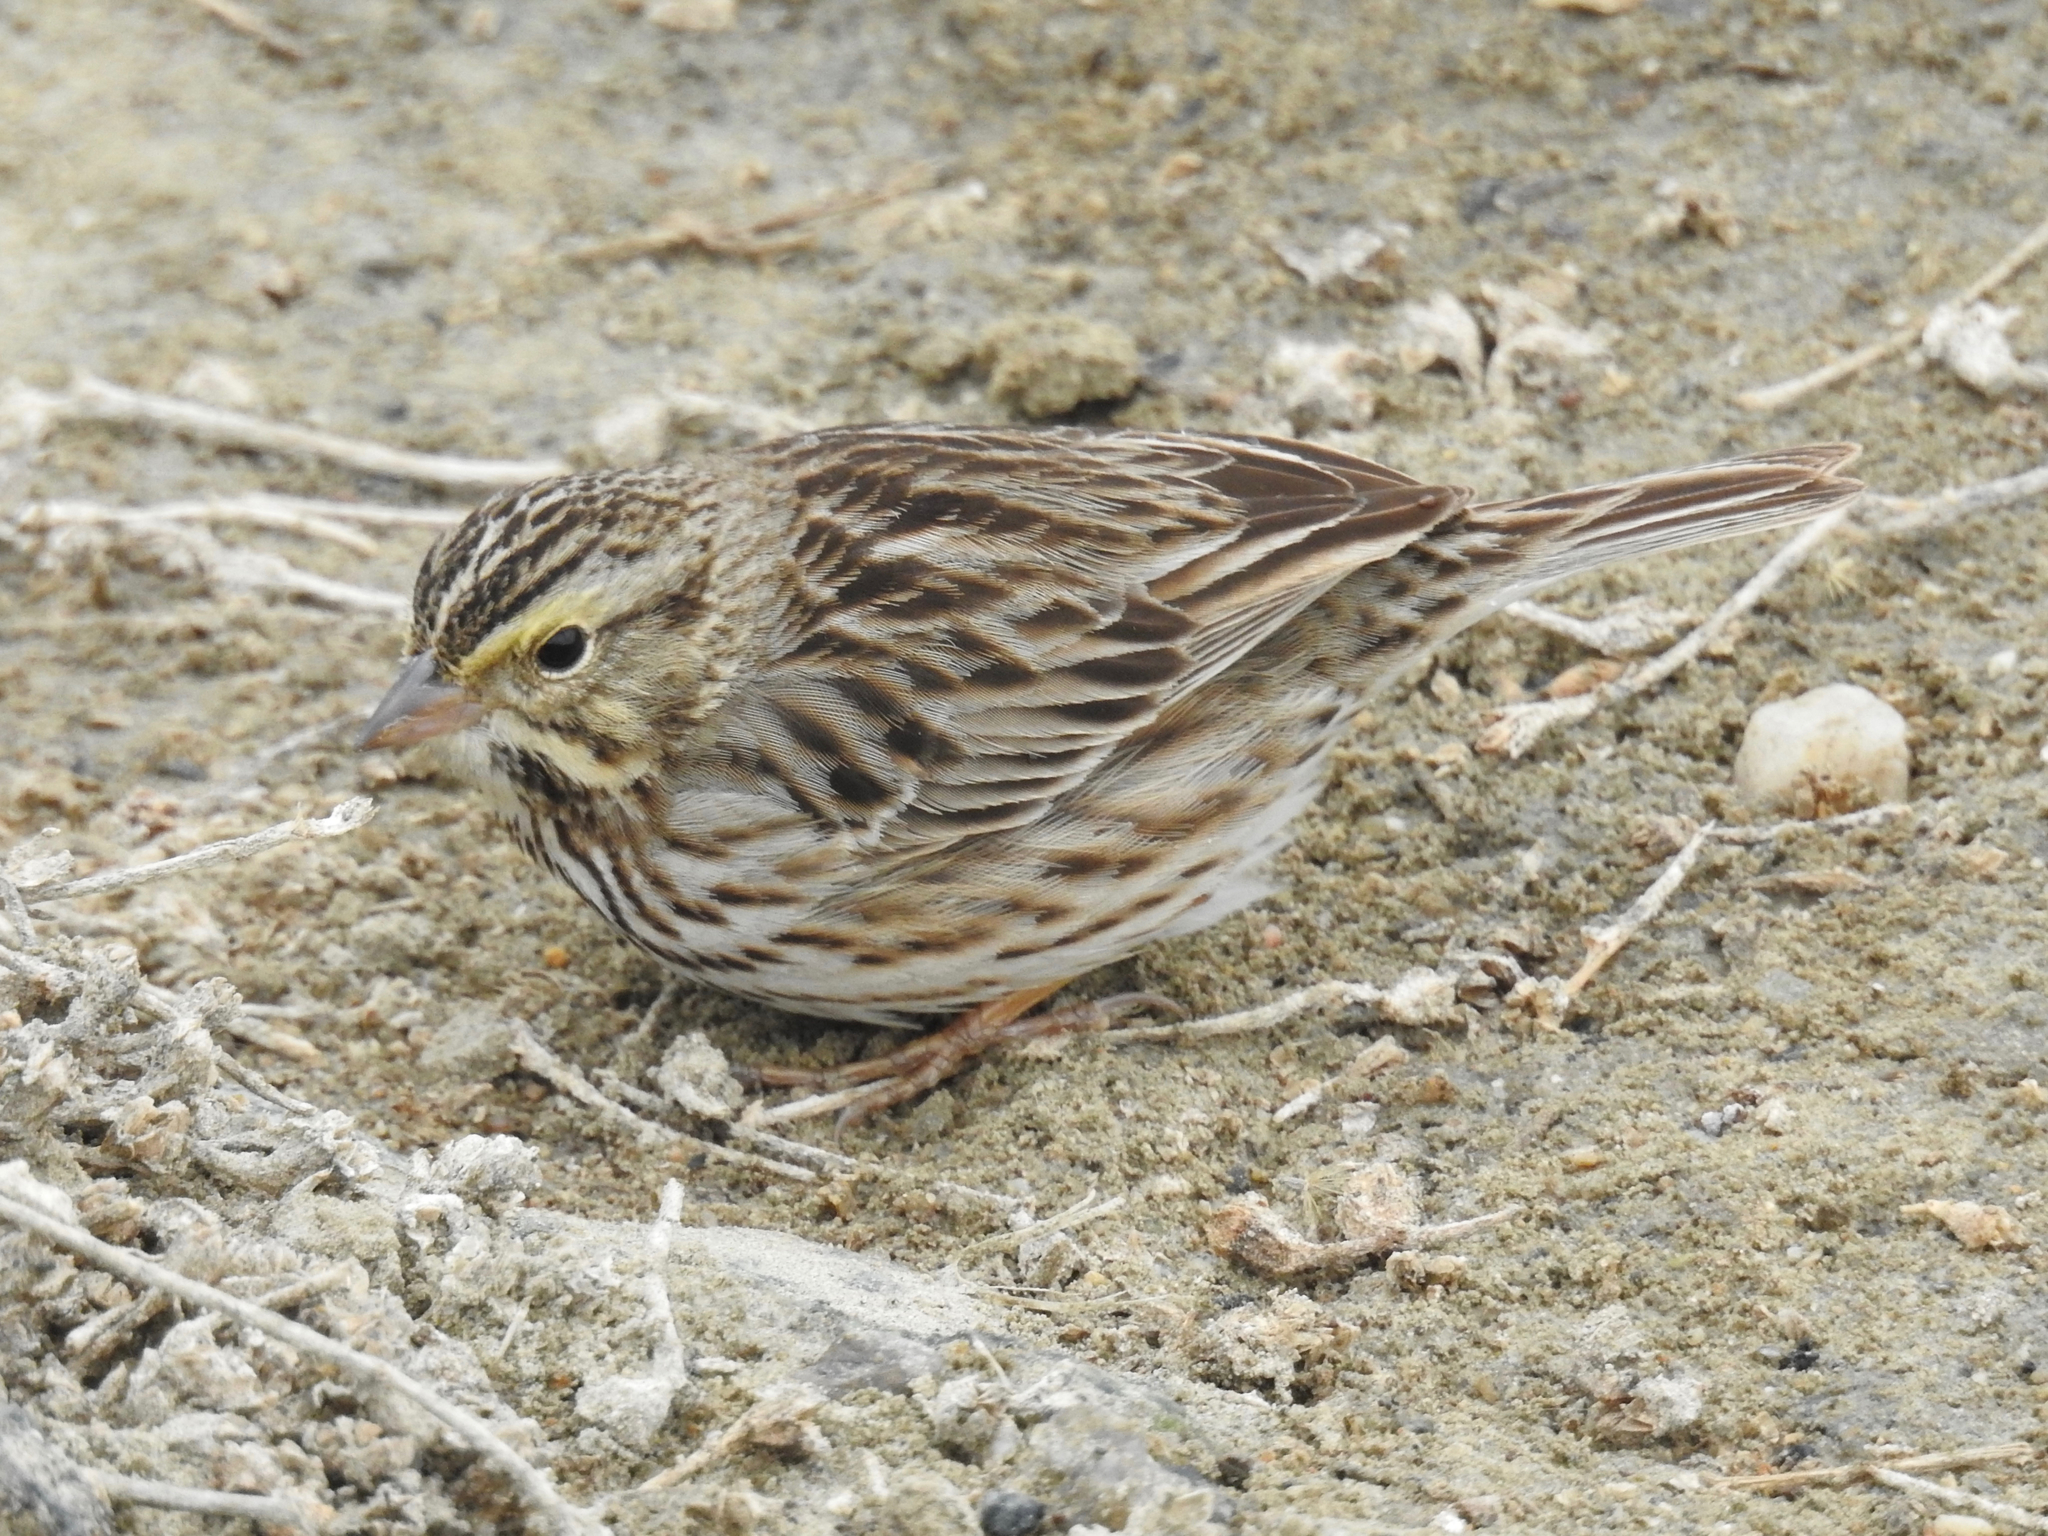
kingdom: Animalia
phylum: Chordata
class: Aves
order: Passeriformes
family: Passerellidae
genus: Passerculus
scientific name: Passerculus sandwichensis
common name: Savannah sparrow
